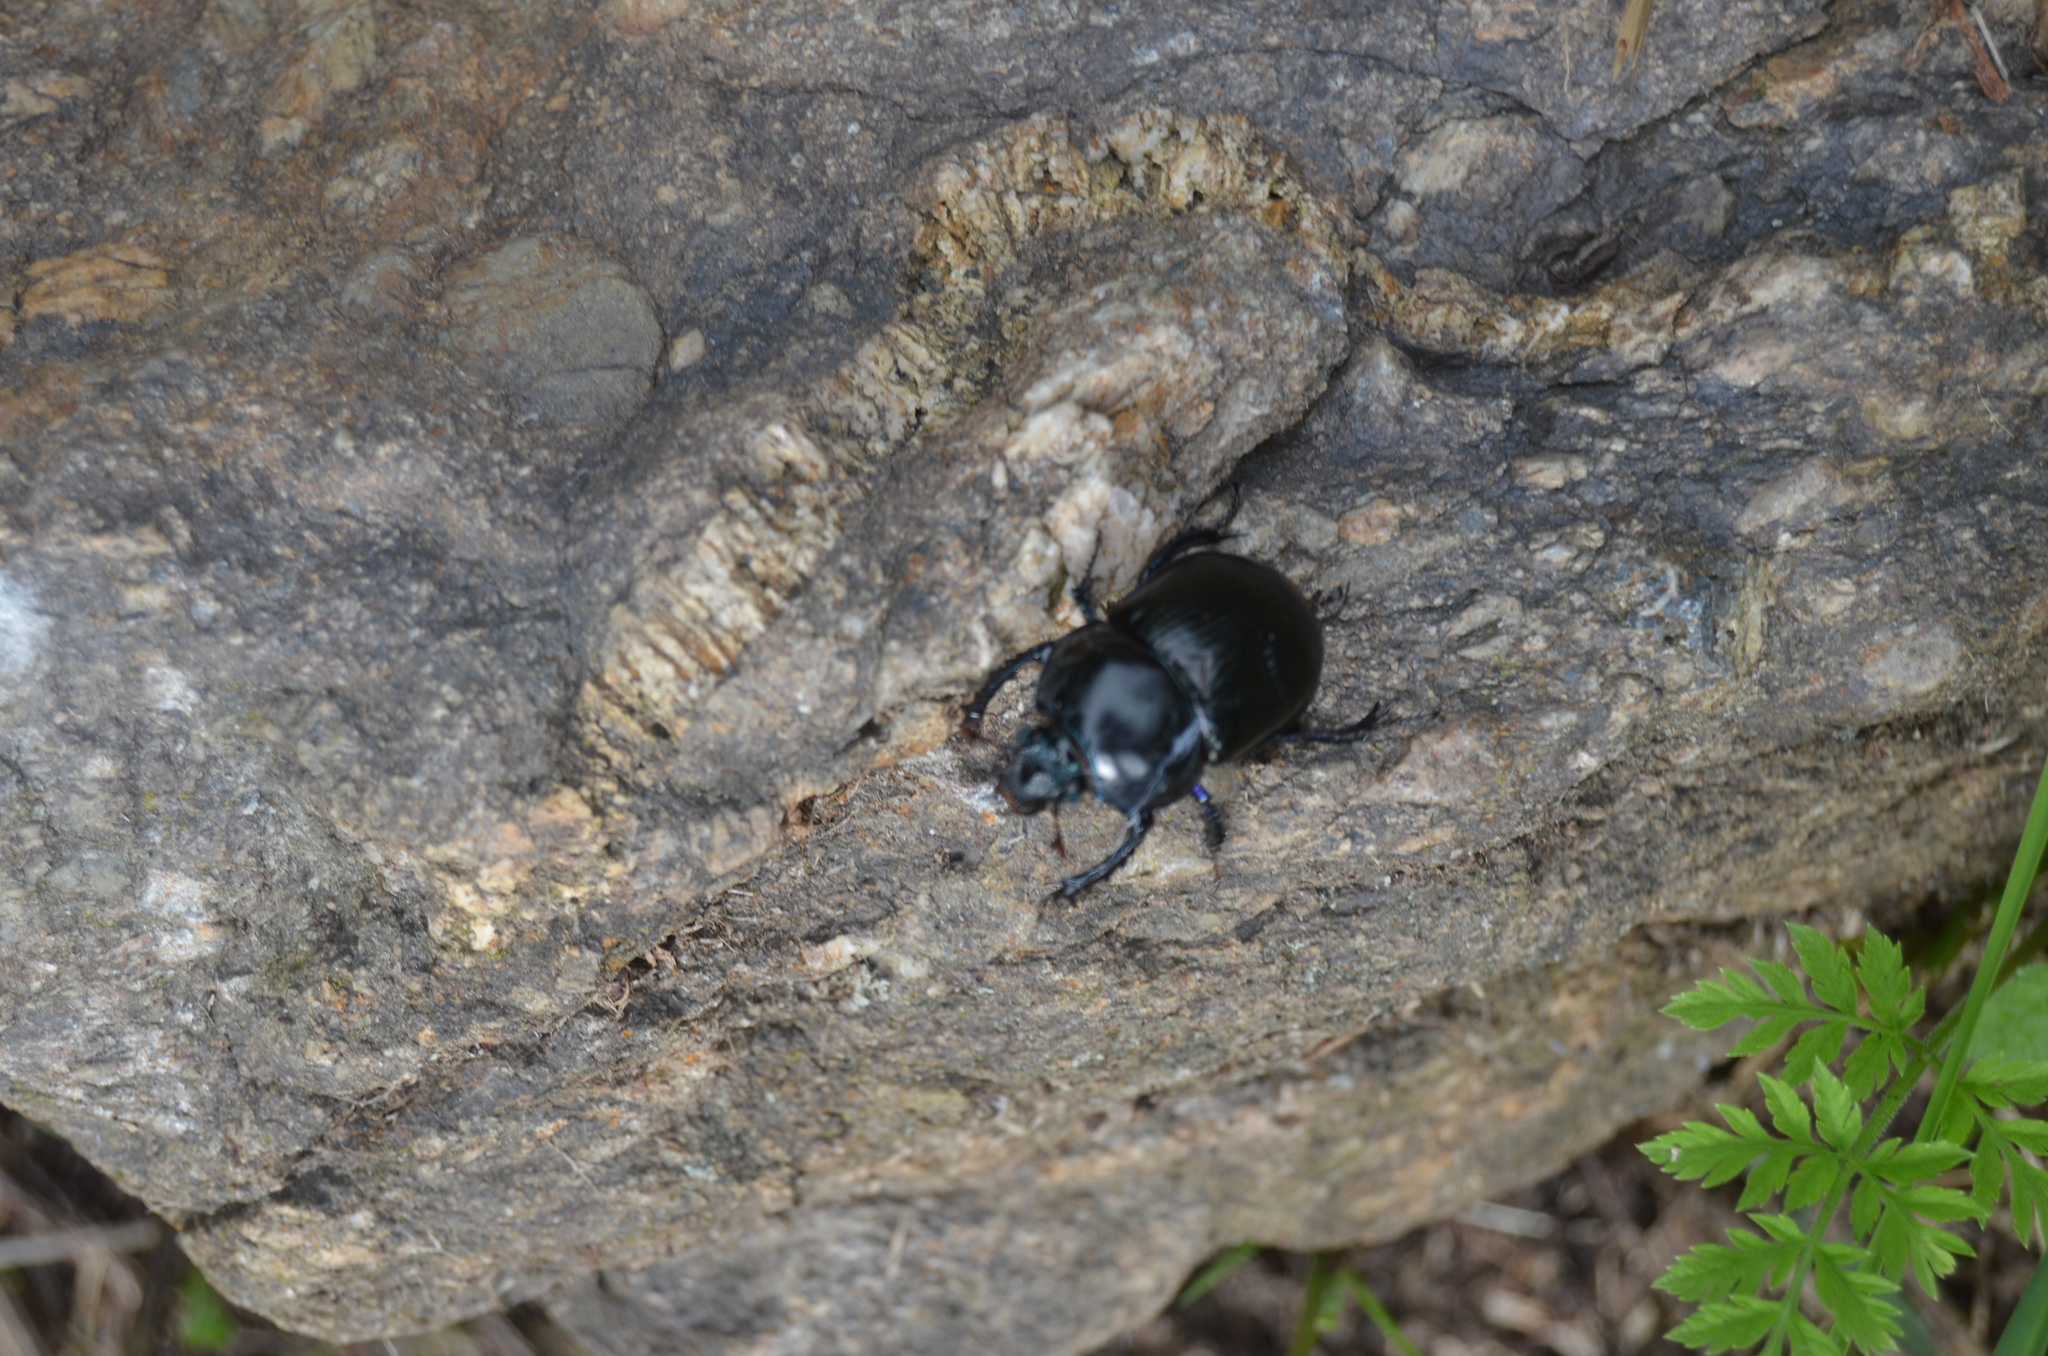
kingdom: Animalia
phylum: Arthropoda
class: Insecta
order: Coleoptera
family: Geotrupidae
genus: Anoplotrupes
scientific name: Anoplotrupes stercorosus
